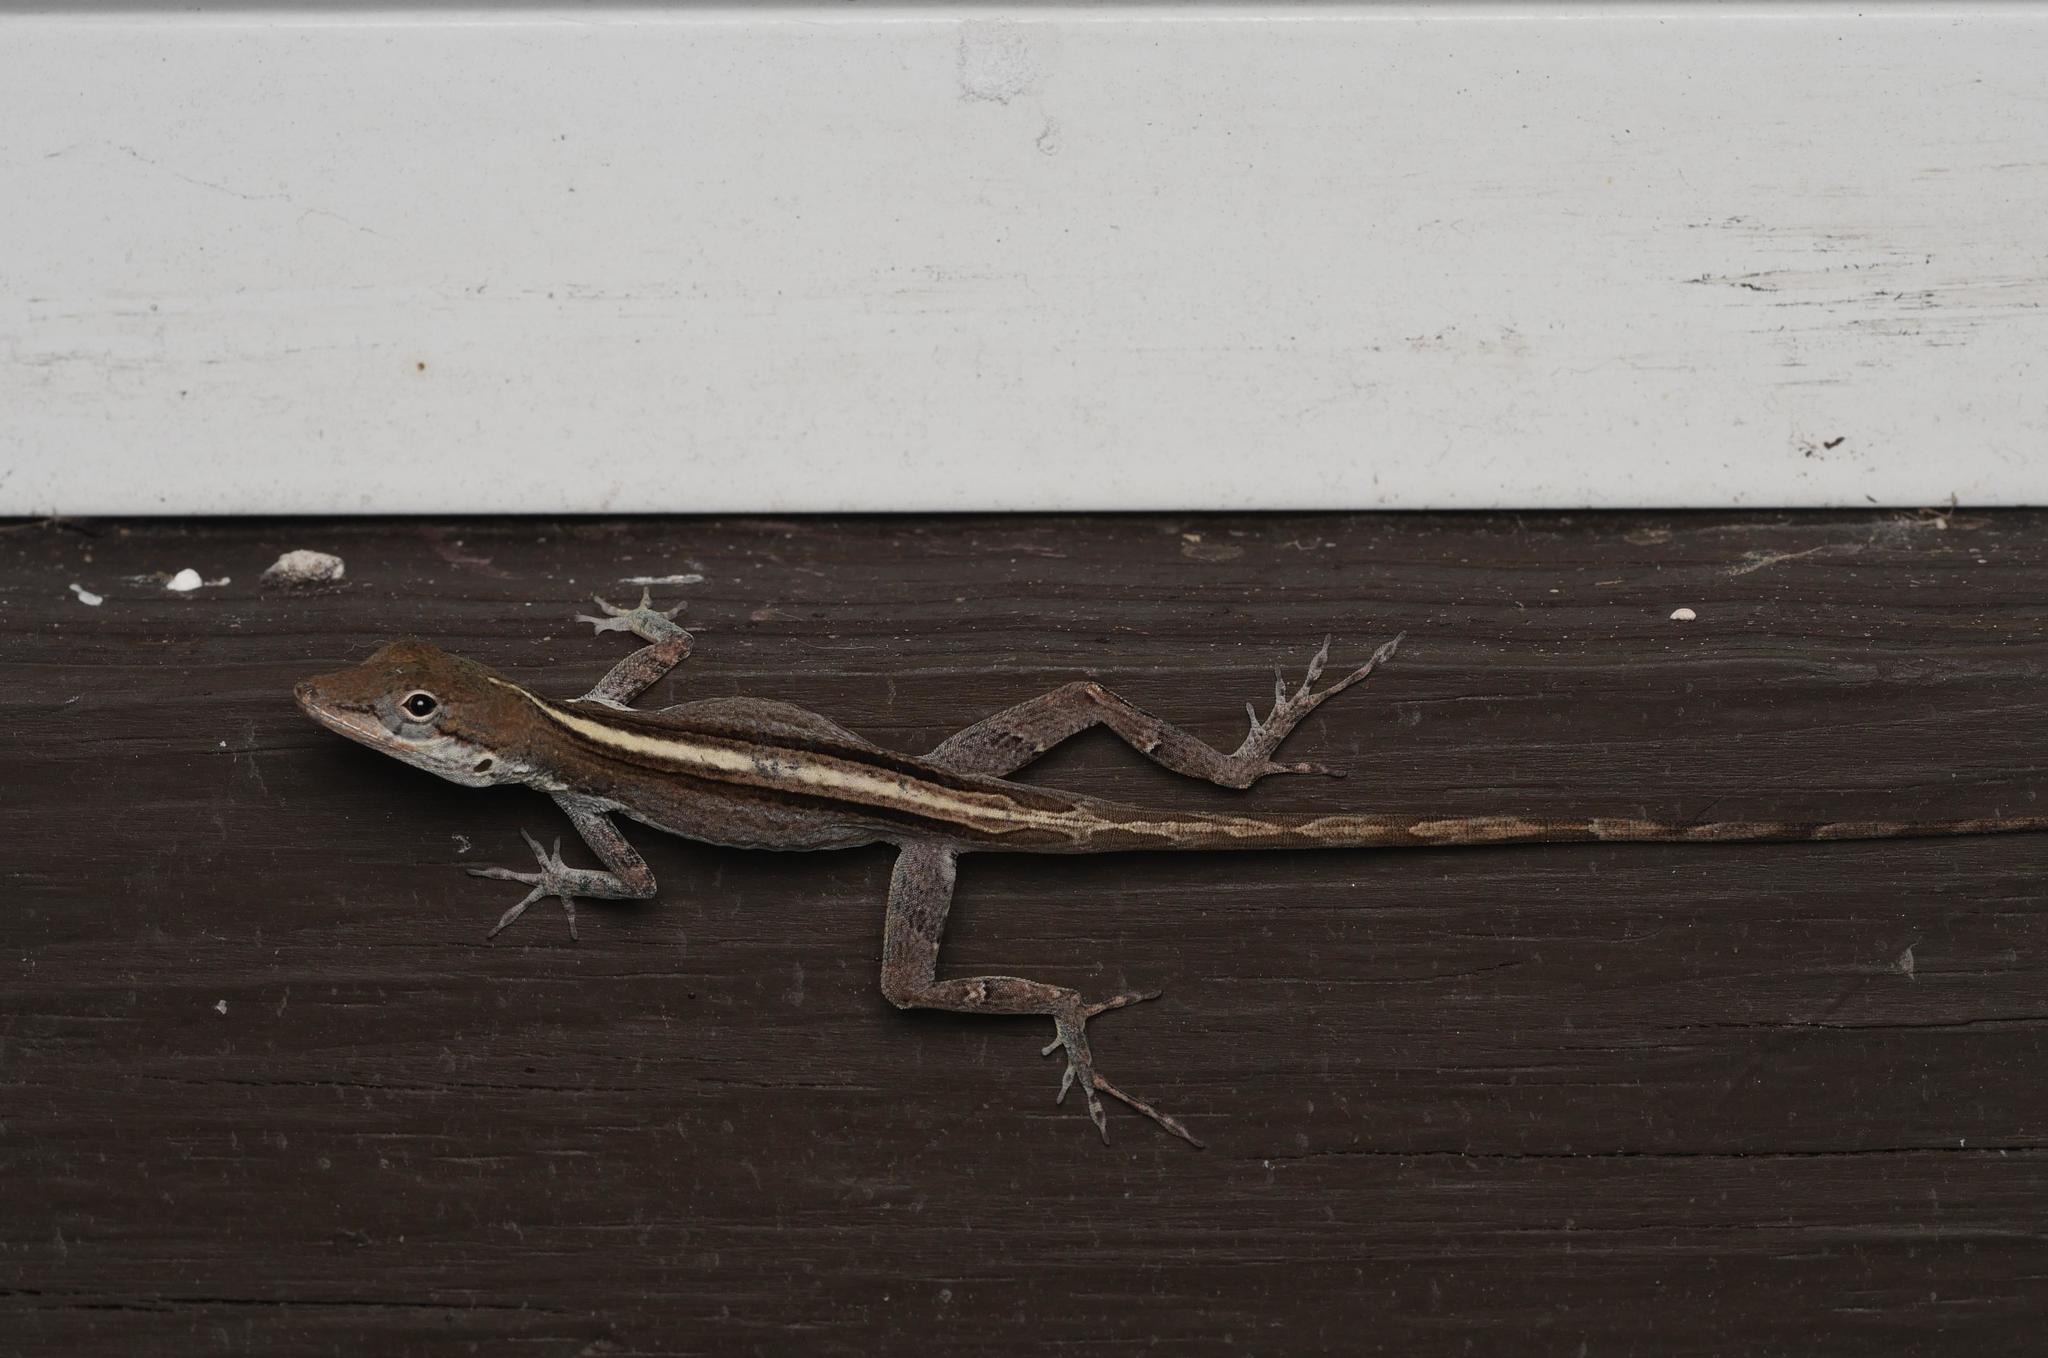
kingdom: Animalia
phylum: Chordata
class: Squamata
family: Dactyloidae
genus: Anolis
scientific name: Anolis scriptus
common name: Silver key anole
